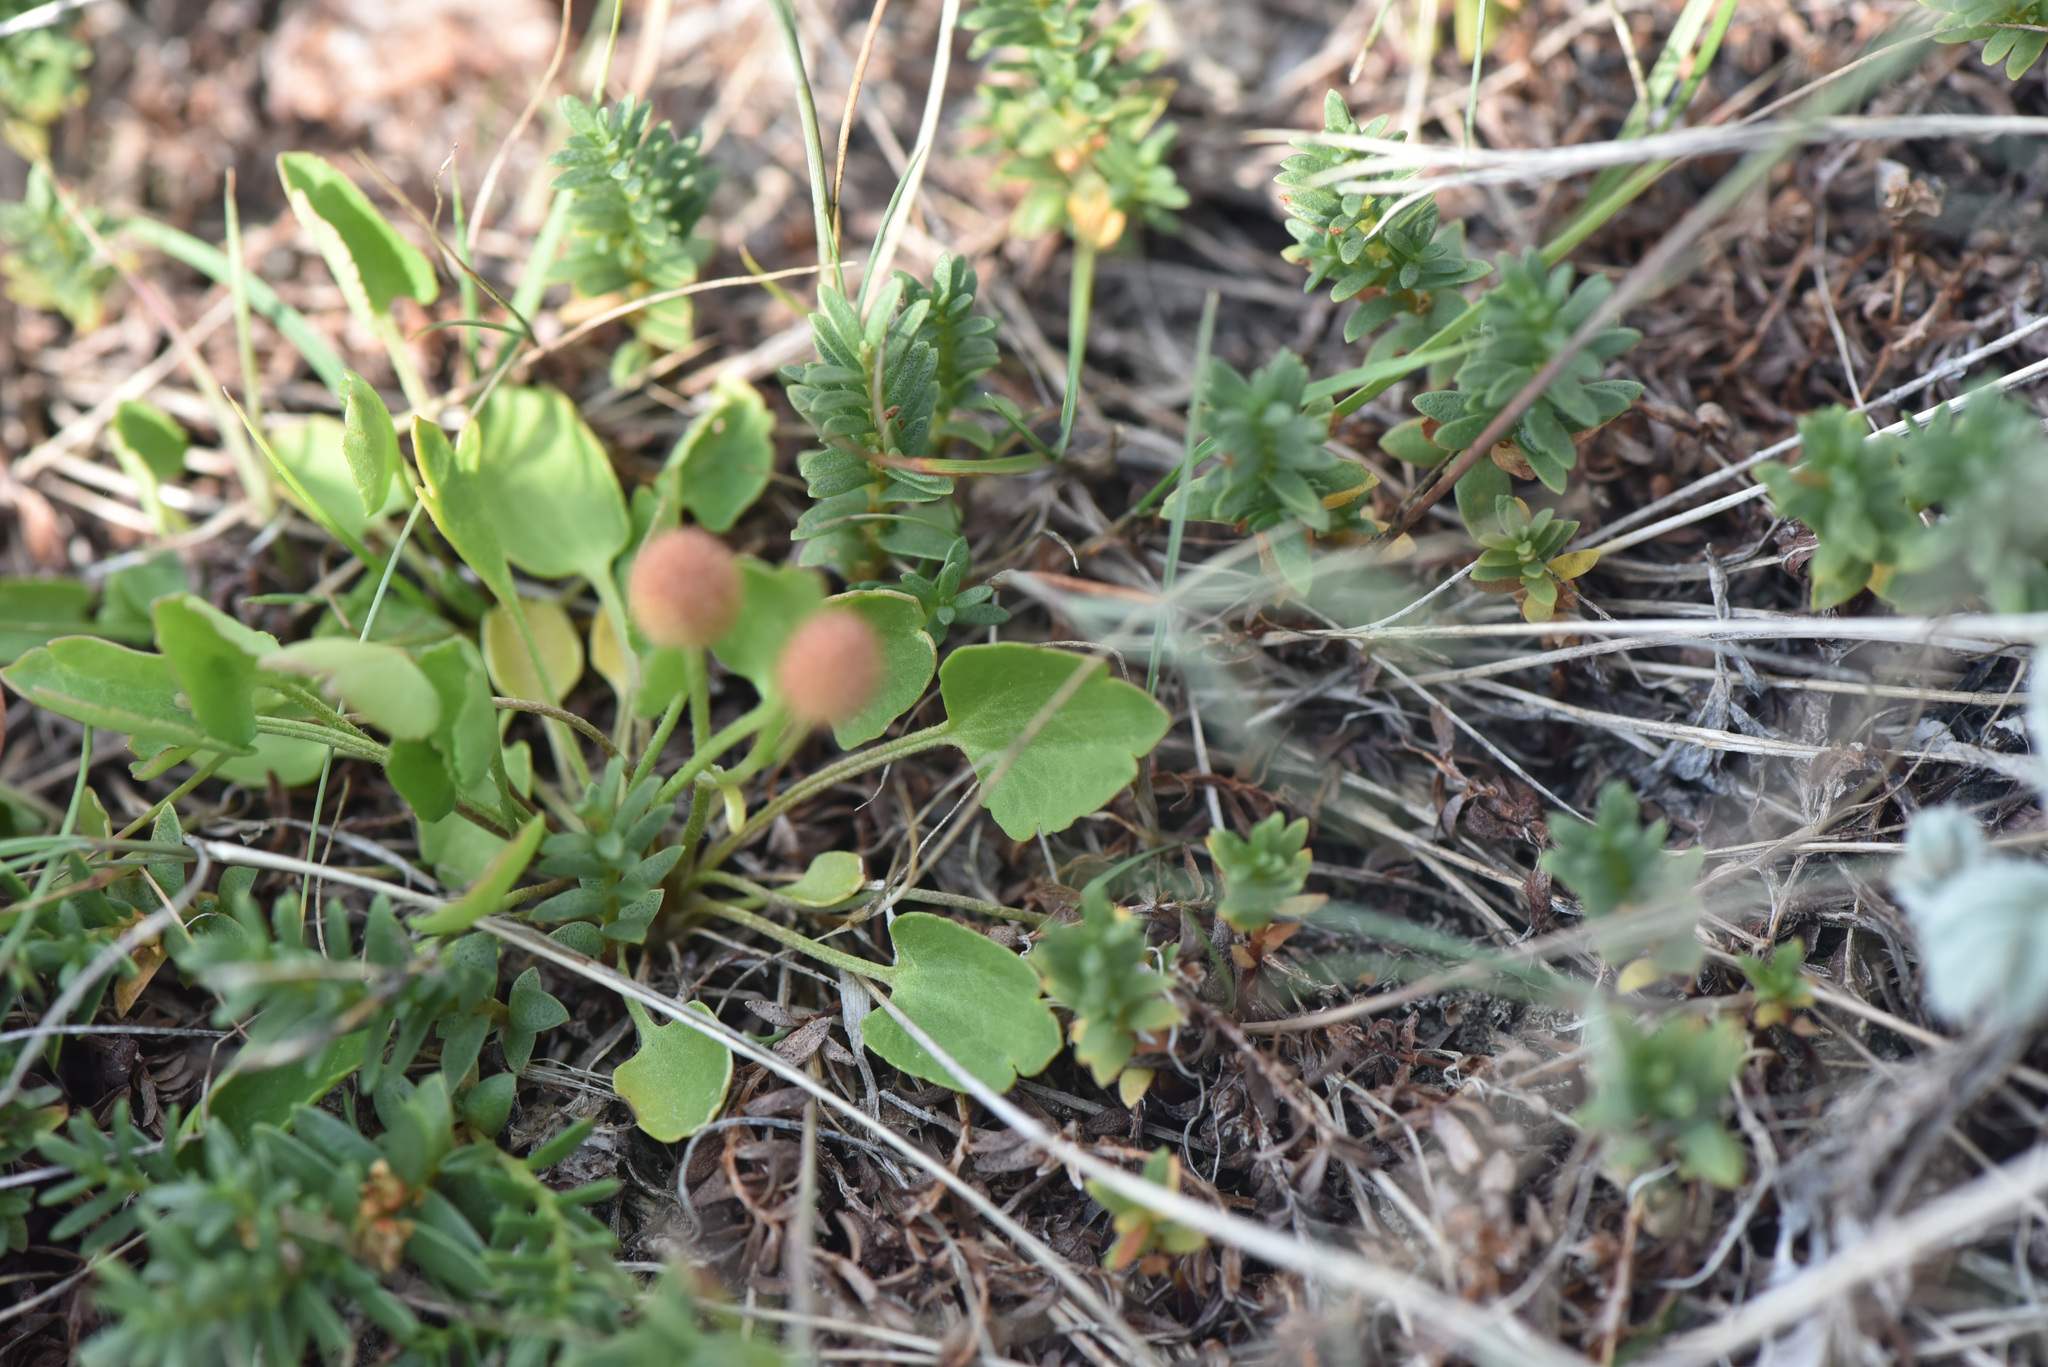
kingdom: Plantae
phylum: Tracheophyta
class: Magnoliopsida
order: Ranunculales
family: Ranunculaceae
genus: Halerpestes
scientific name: Halerpestes cymbalaria
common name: Seaside crowfoot
